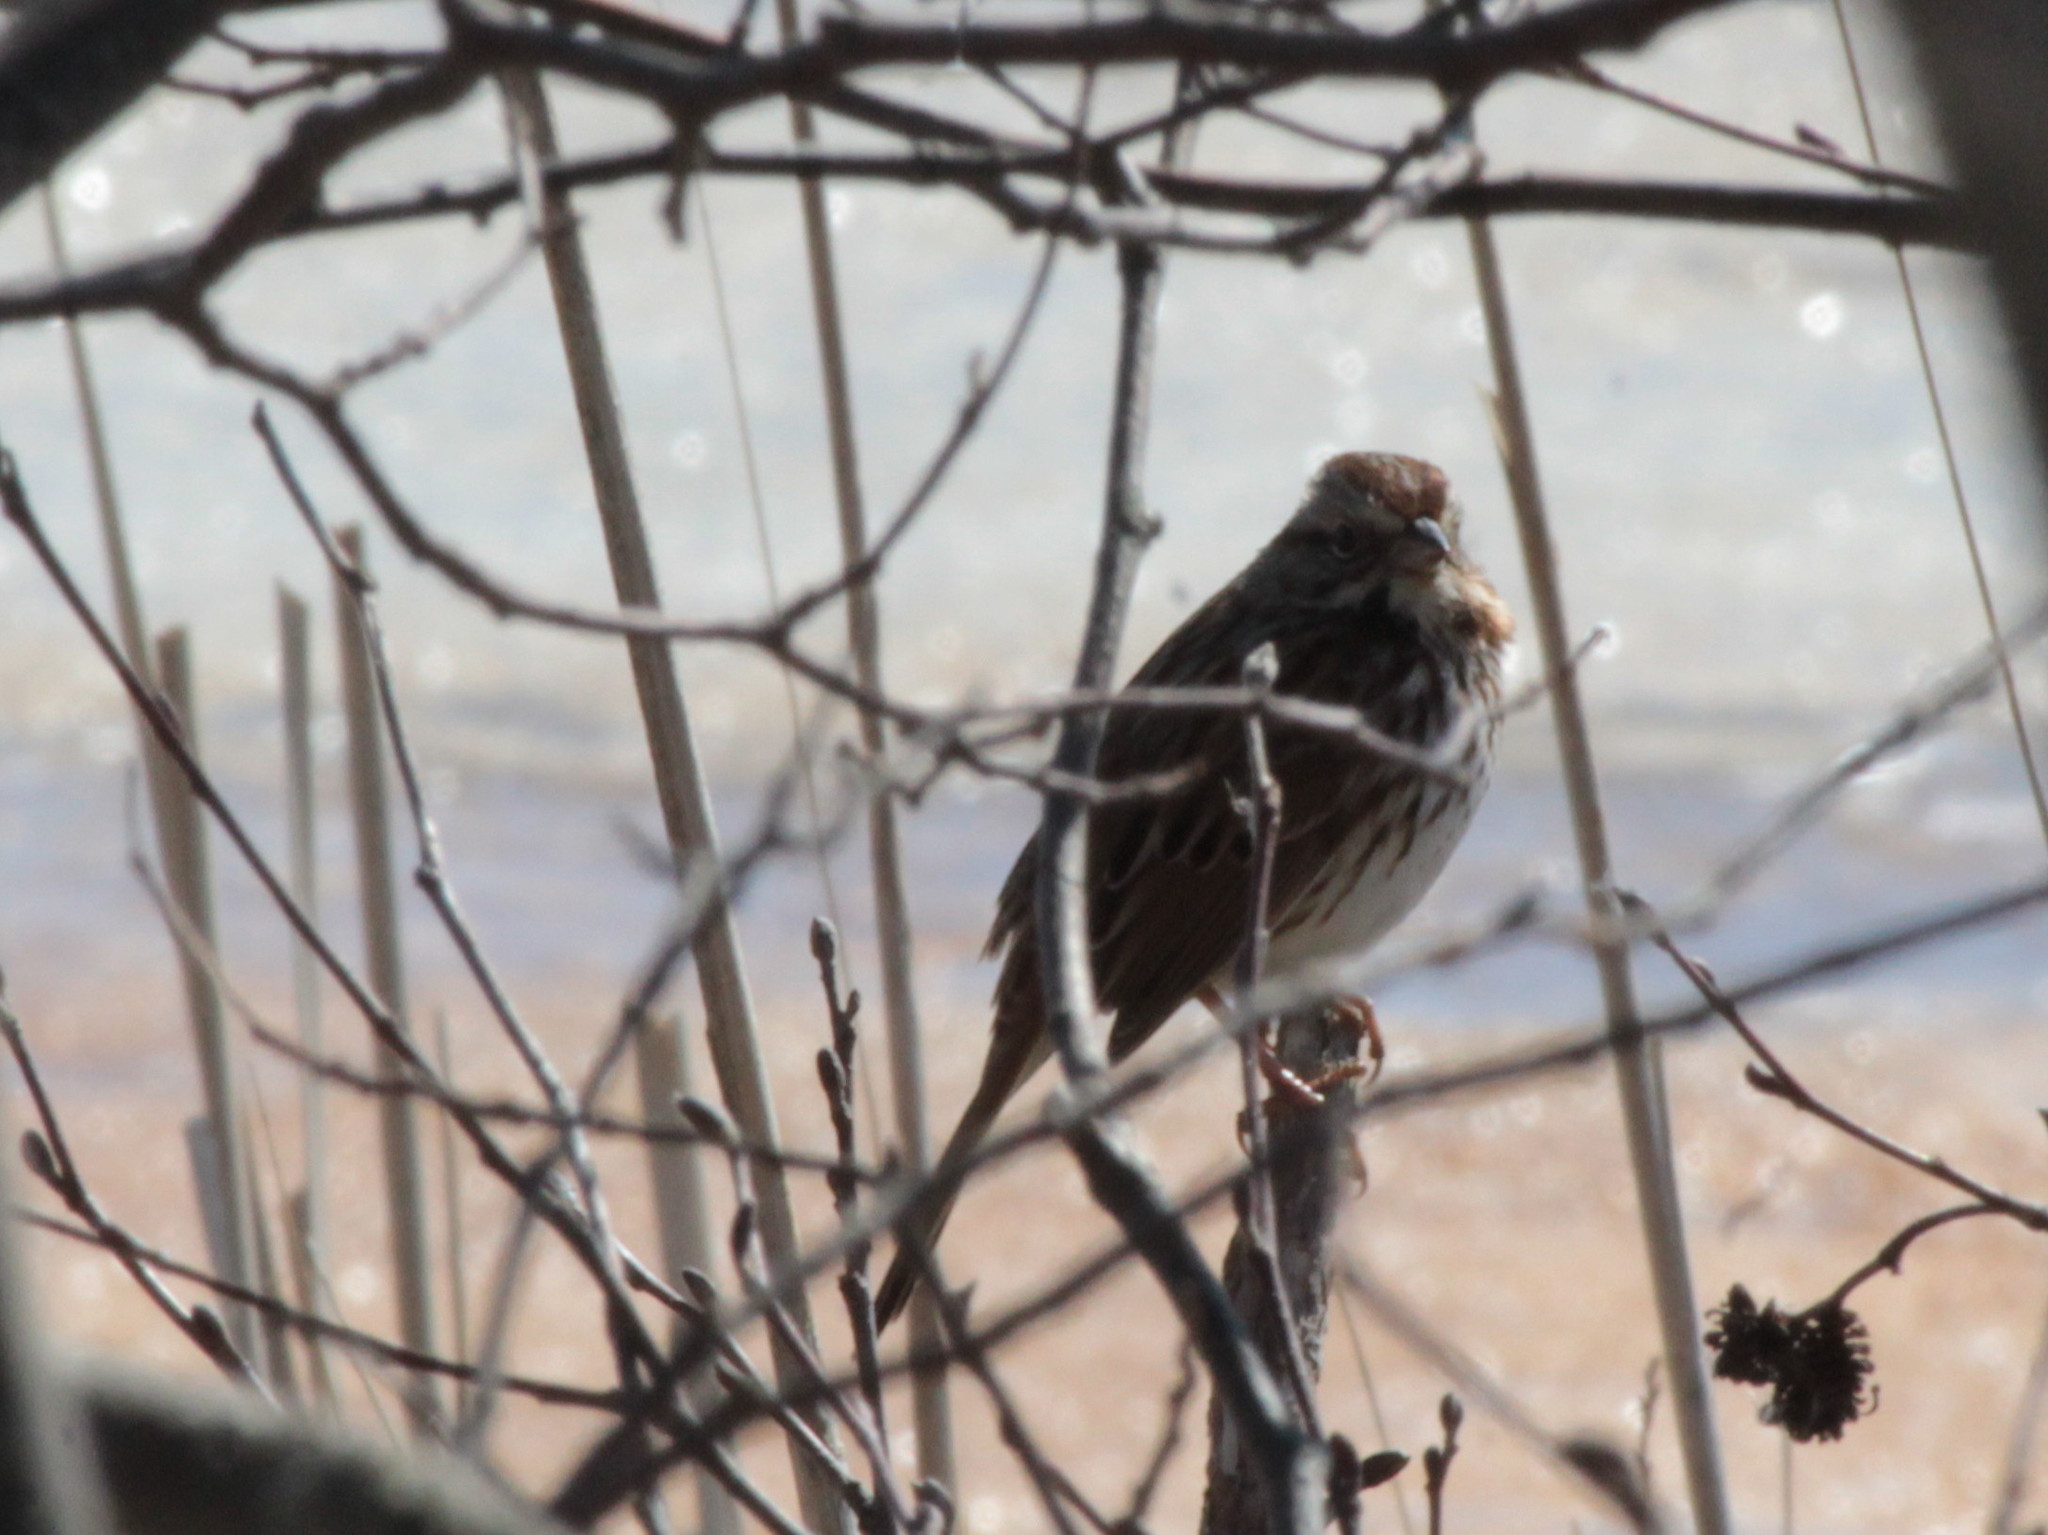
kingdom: Animalia
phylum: Chordata
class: Aves
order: Passeriformes
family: Passerellidae
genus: Melospiza
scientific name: Melospiza melodia
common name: Song sparrow
